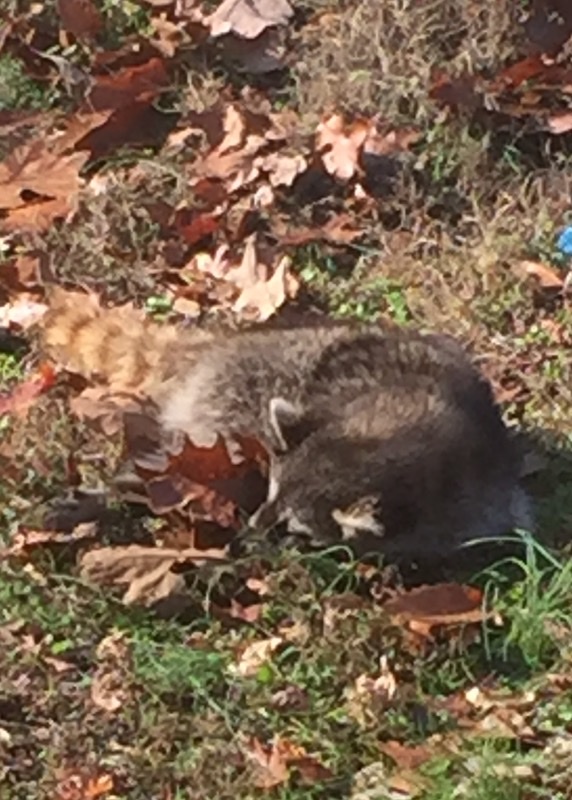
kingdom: Animalia
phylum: Chordata
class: Mammalia
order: Carnivora
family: Procyonidae
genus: Procyon
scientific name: Procyon lotor
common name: Raccoon
